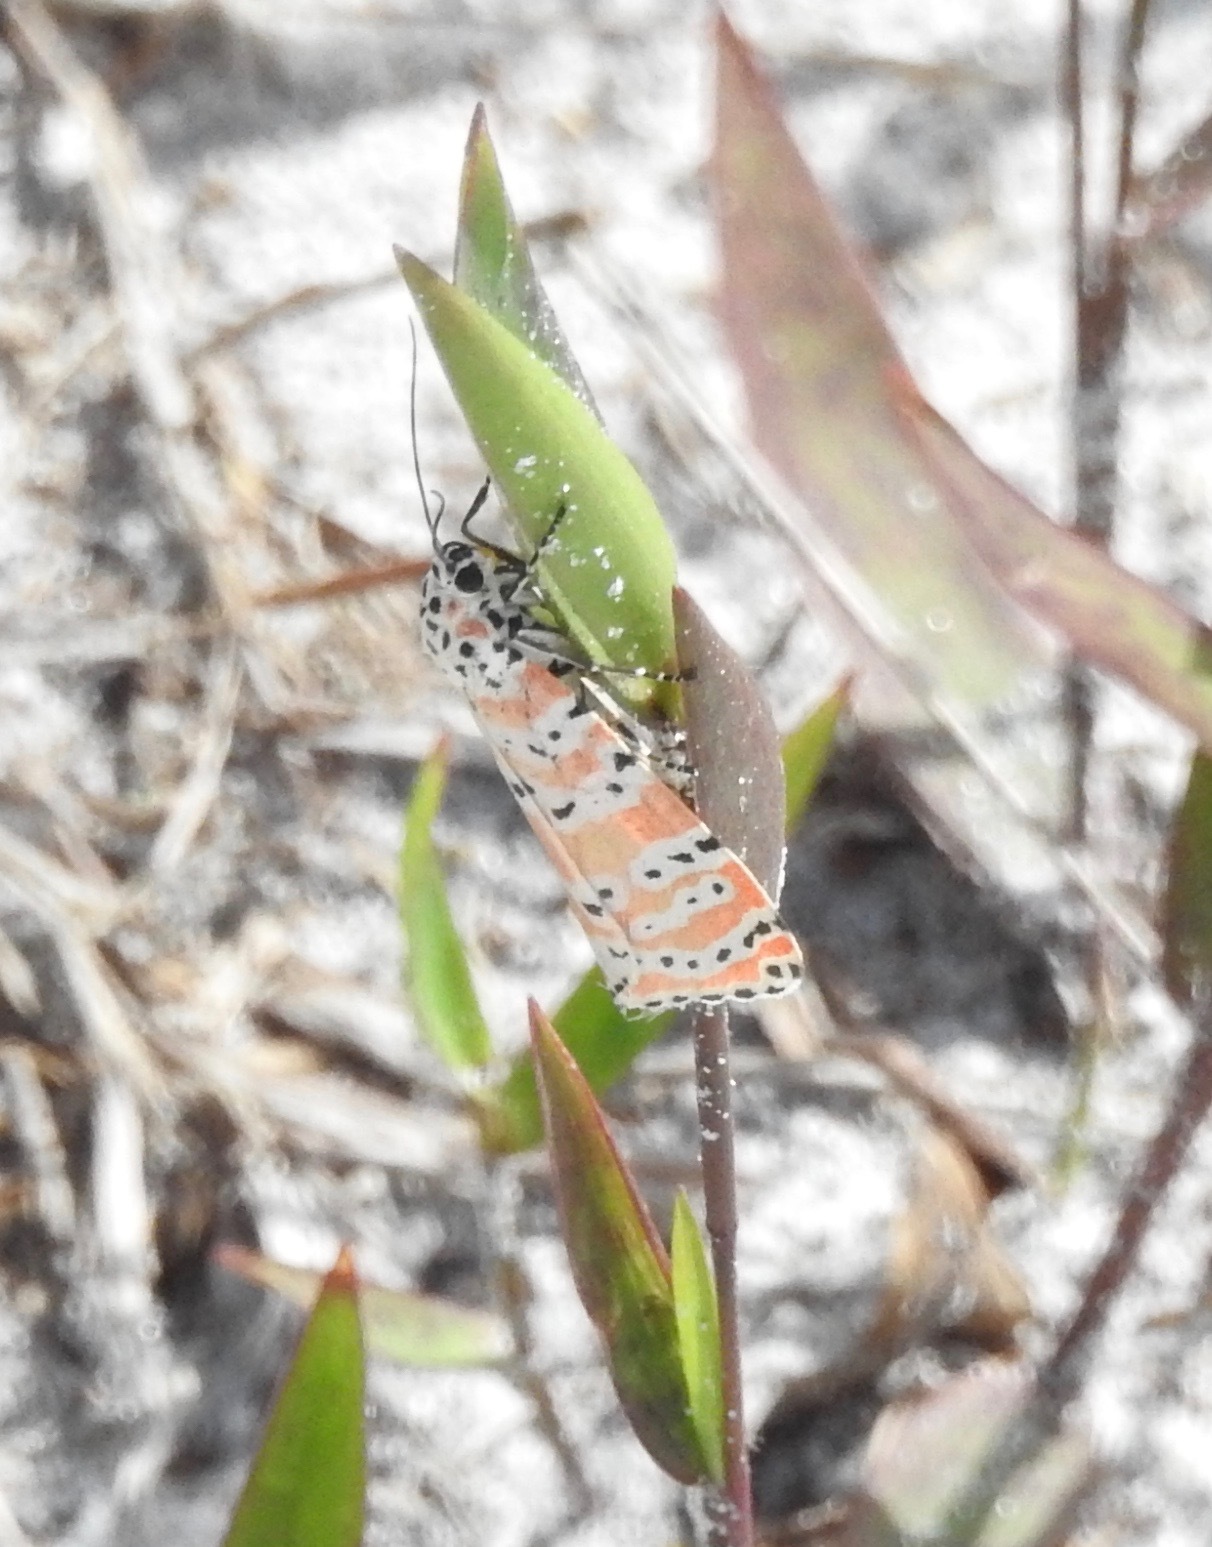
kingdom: Animalia
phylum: Arthropoda
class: Insecta
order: Lepidoptera
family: Erebidae
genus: Utetheisa
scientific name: Utetheisa ornatrix
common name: Beautiful utetheisa
